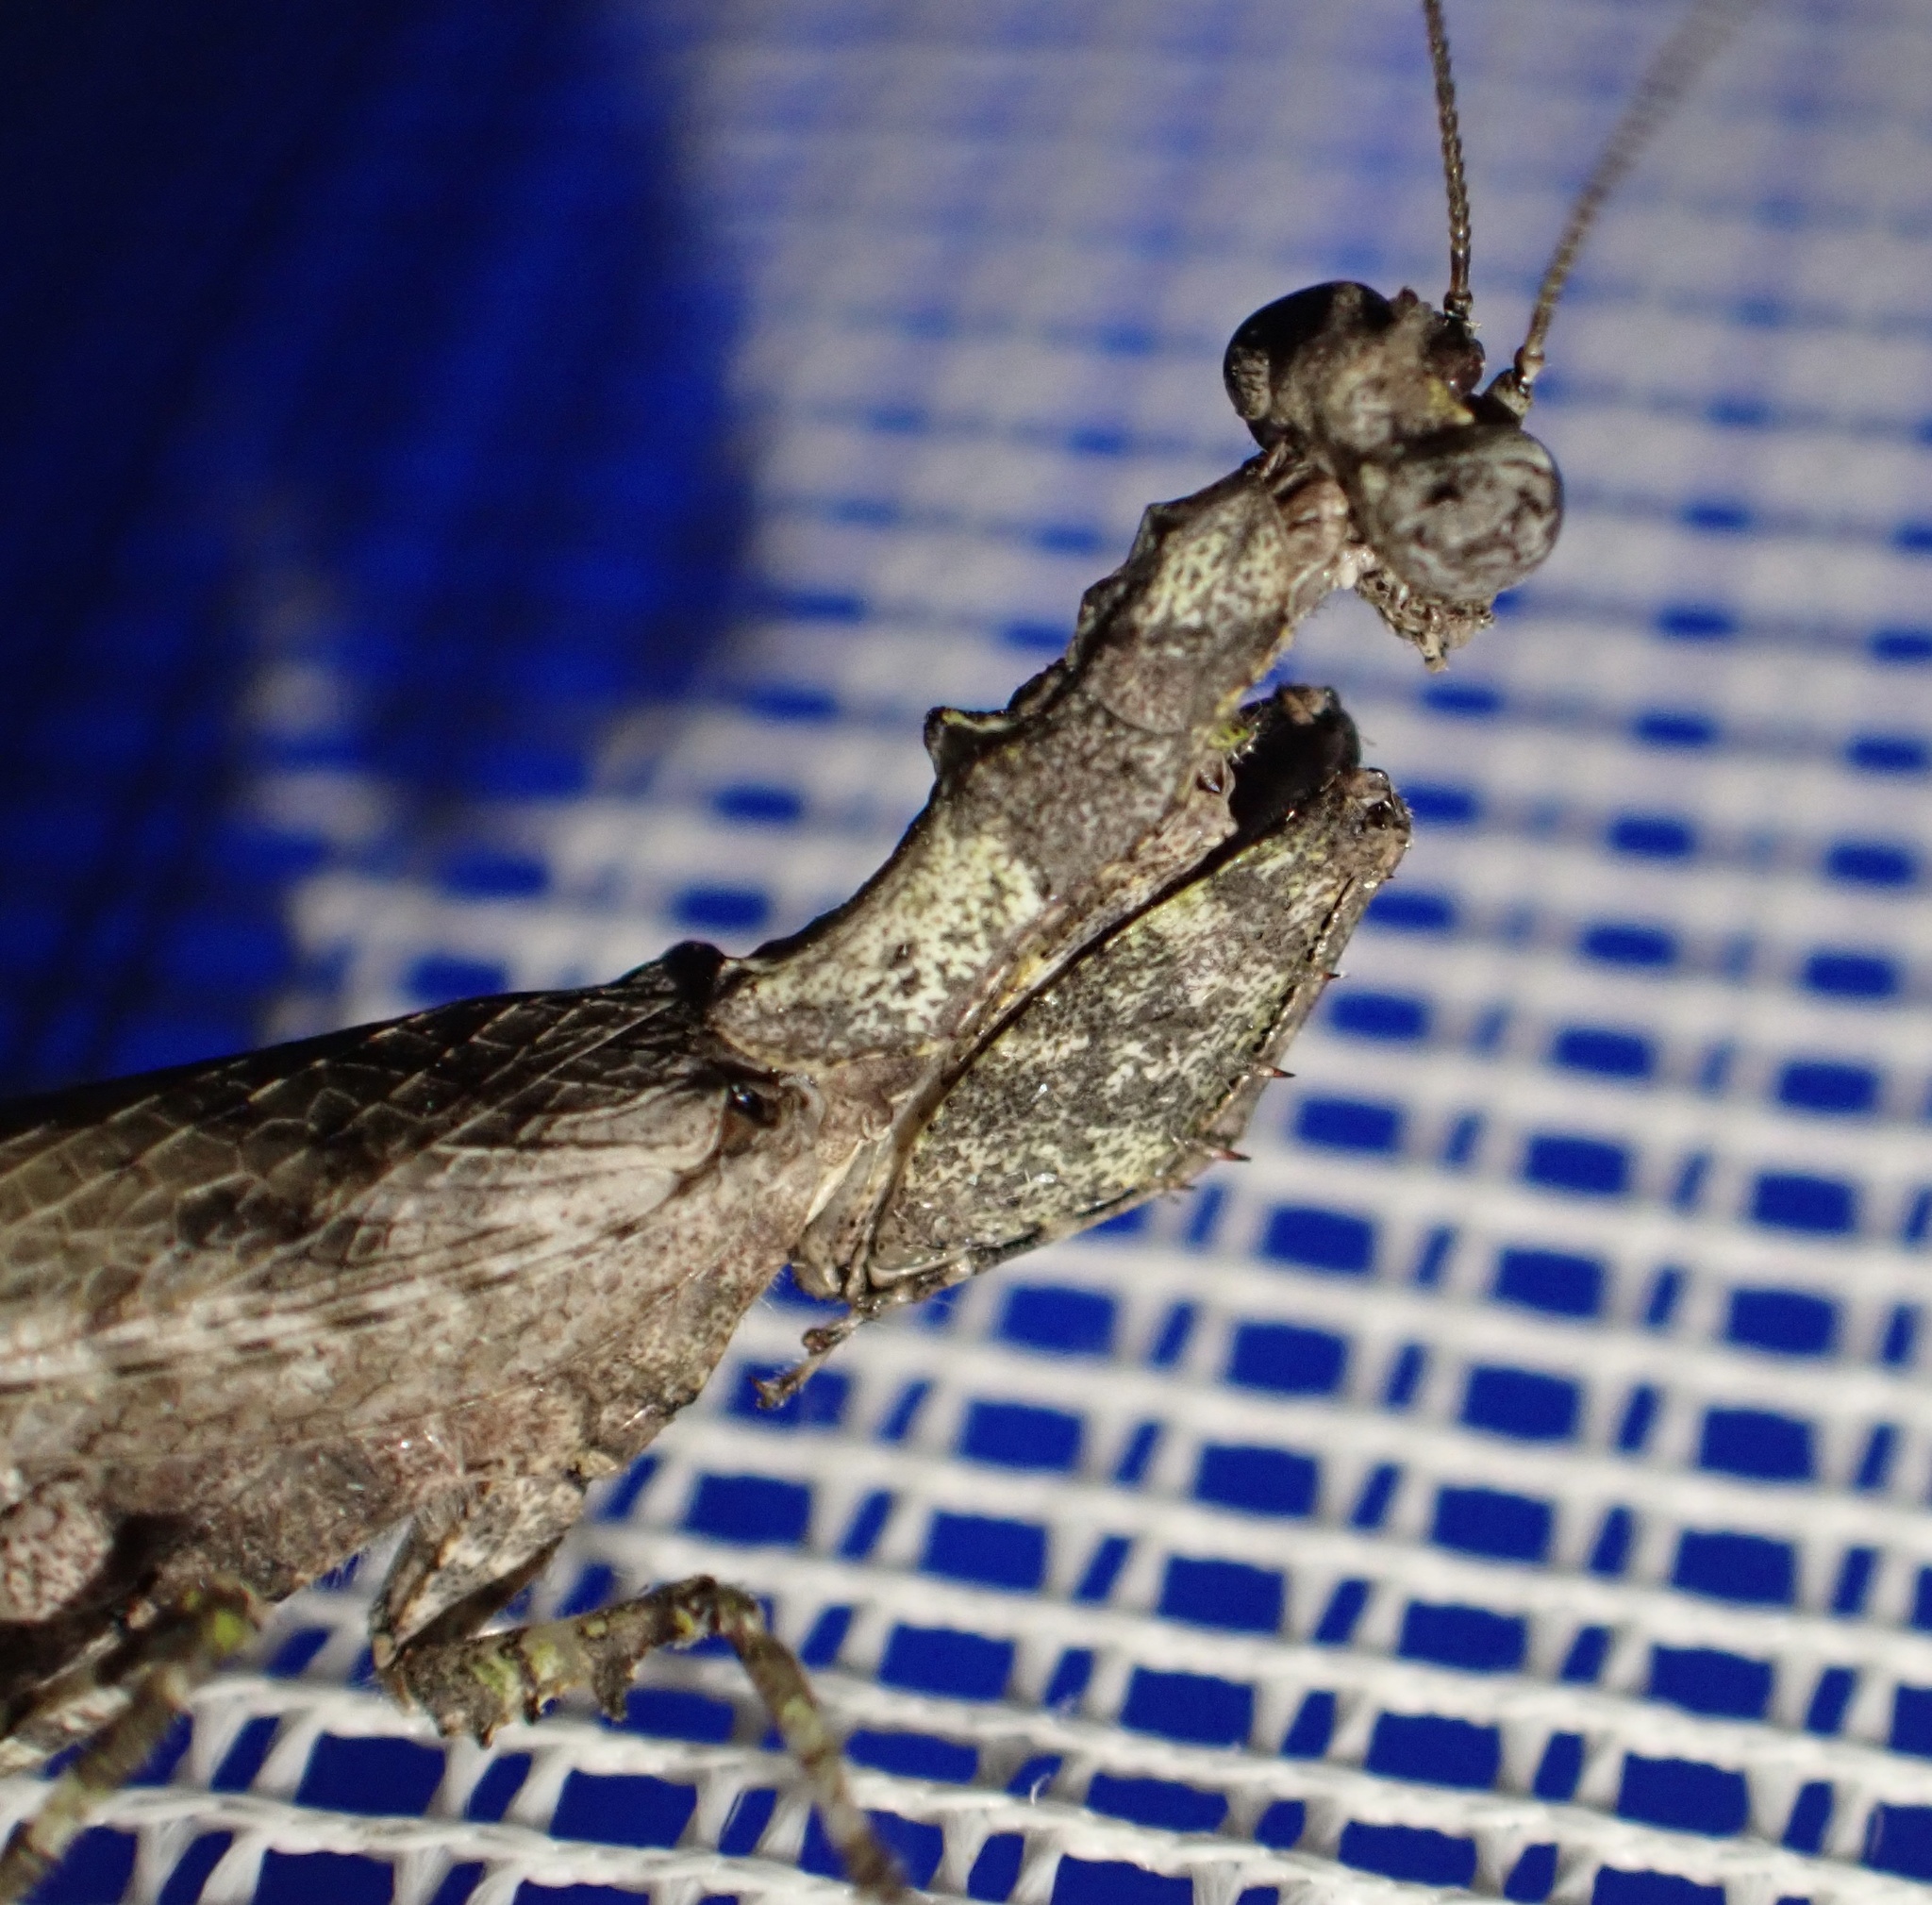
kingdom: Animalia
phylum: Arthropoda
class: Insecta
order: Mantodea
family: Hymenopodidae
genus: Oxypiloidea
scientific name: Oxypiloidea maroccana
